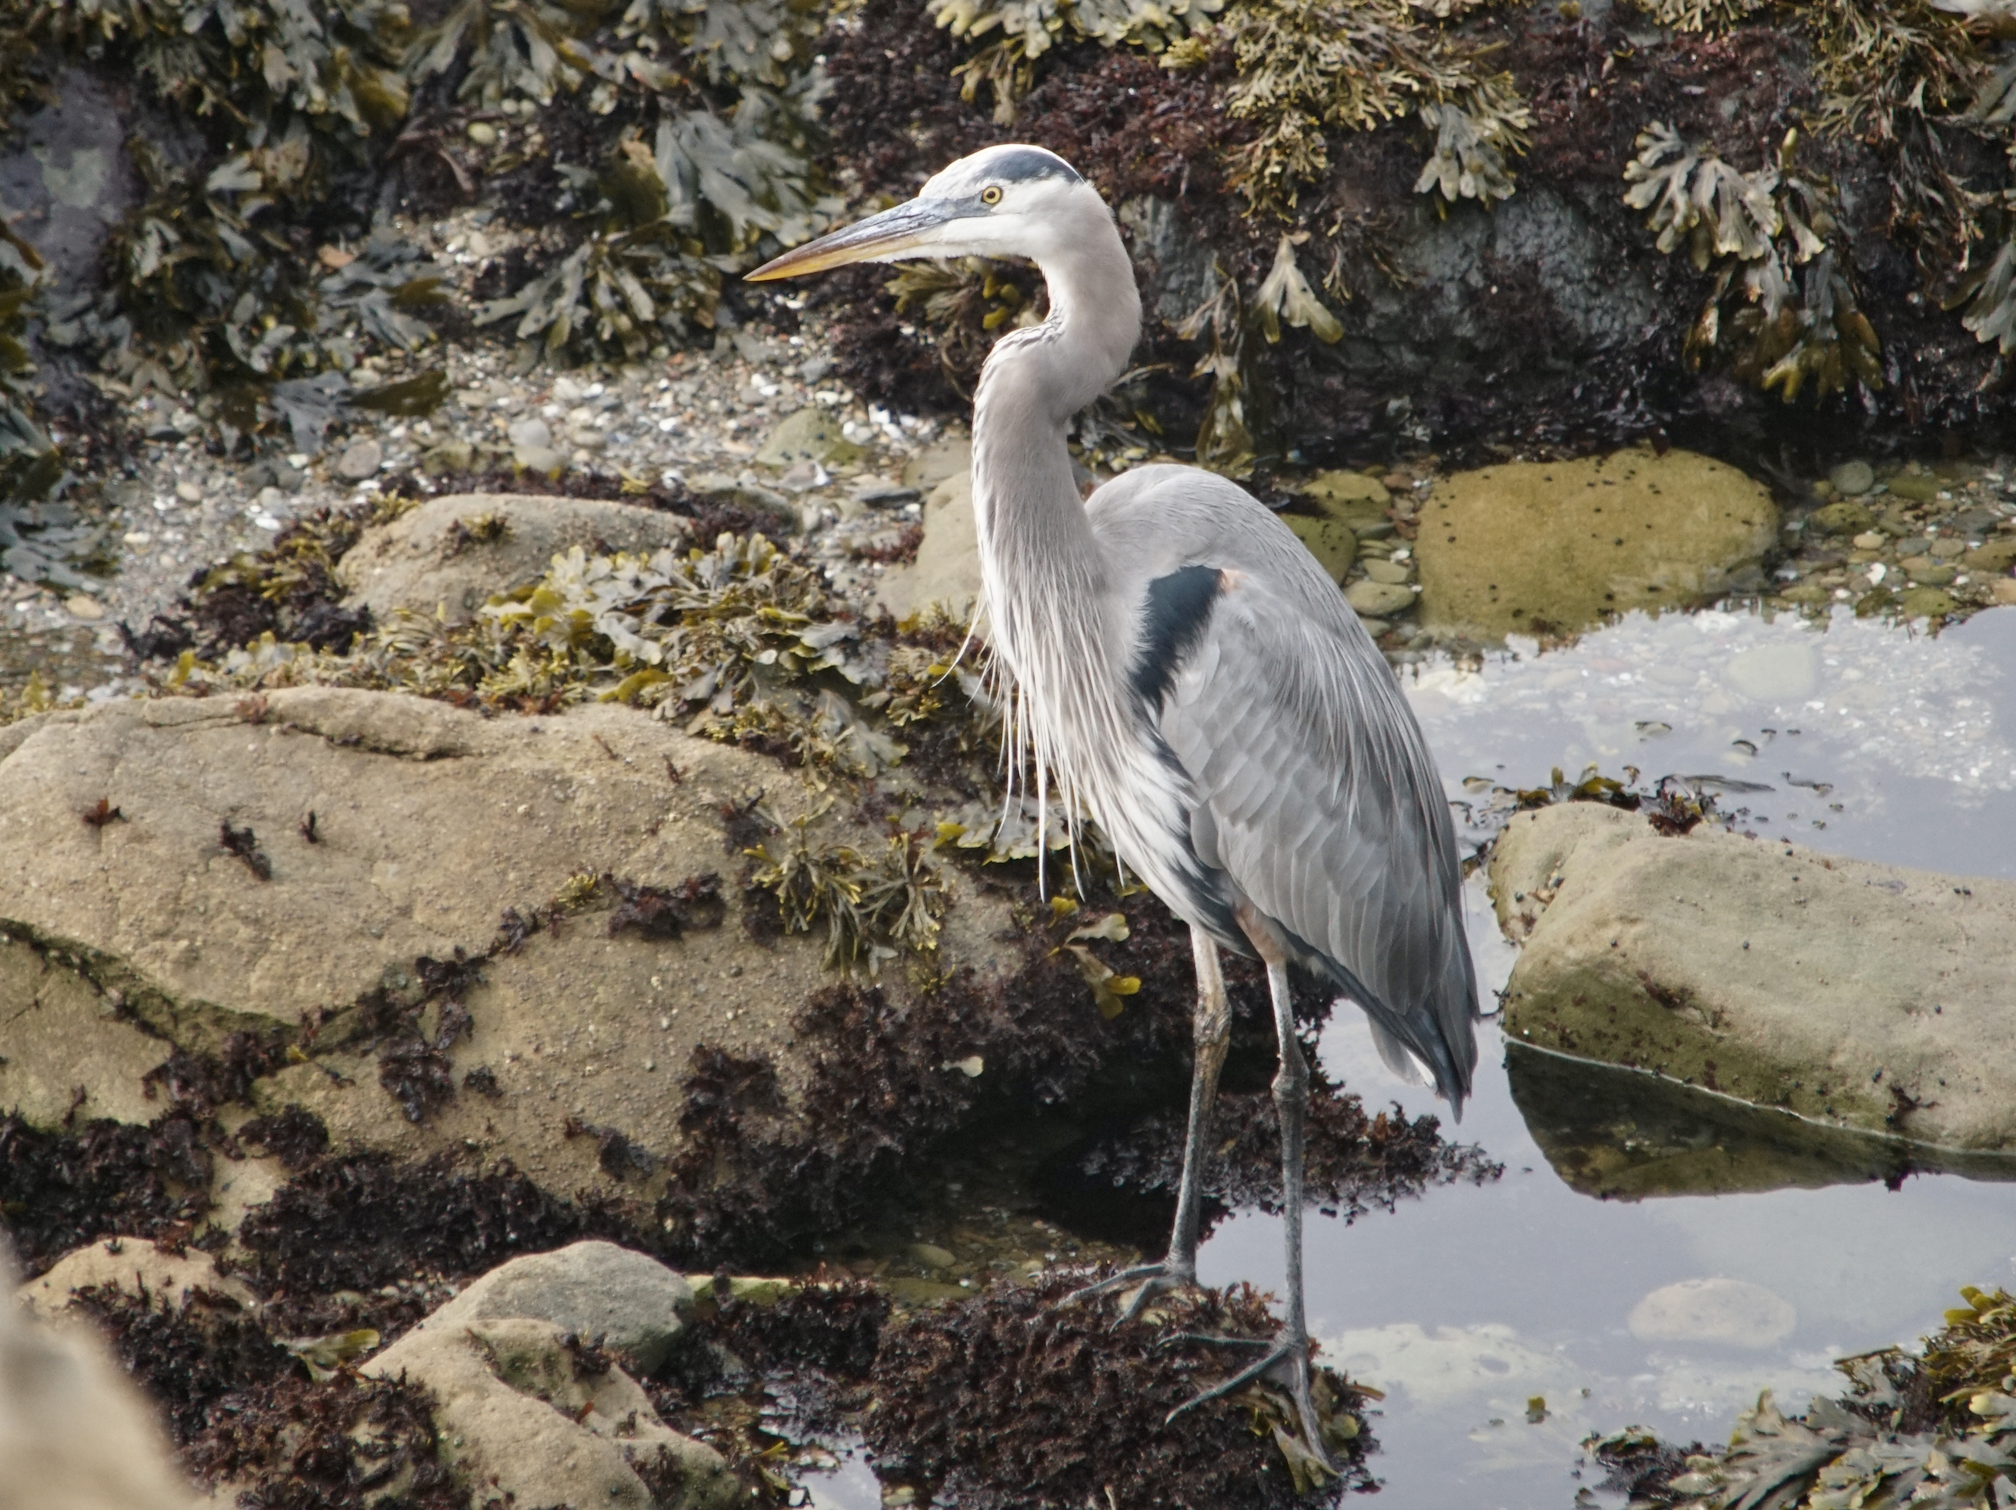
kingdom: Animalia
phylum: Chordata
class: Aves
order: Pelecaniformes
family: Ardeidae
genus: Ardea
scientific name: Ardea herodias
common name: Great blue heron
